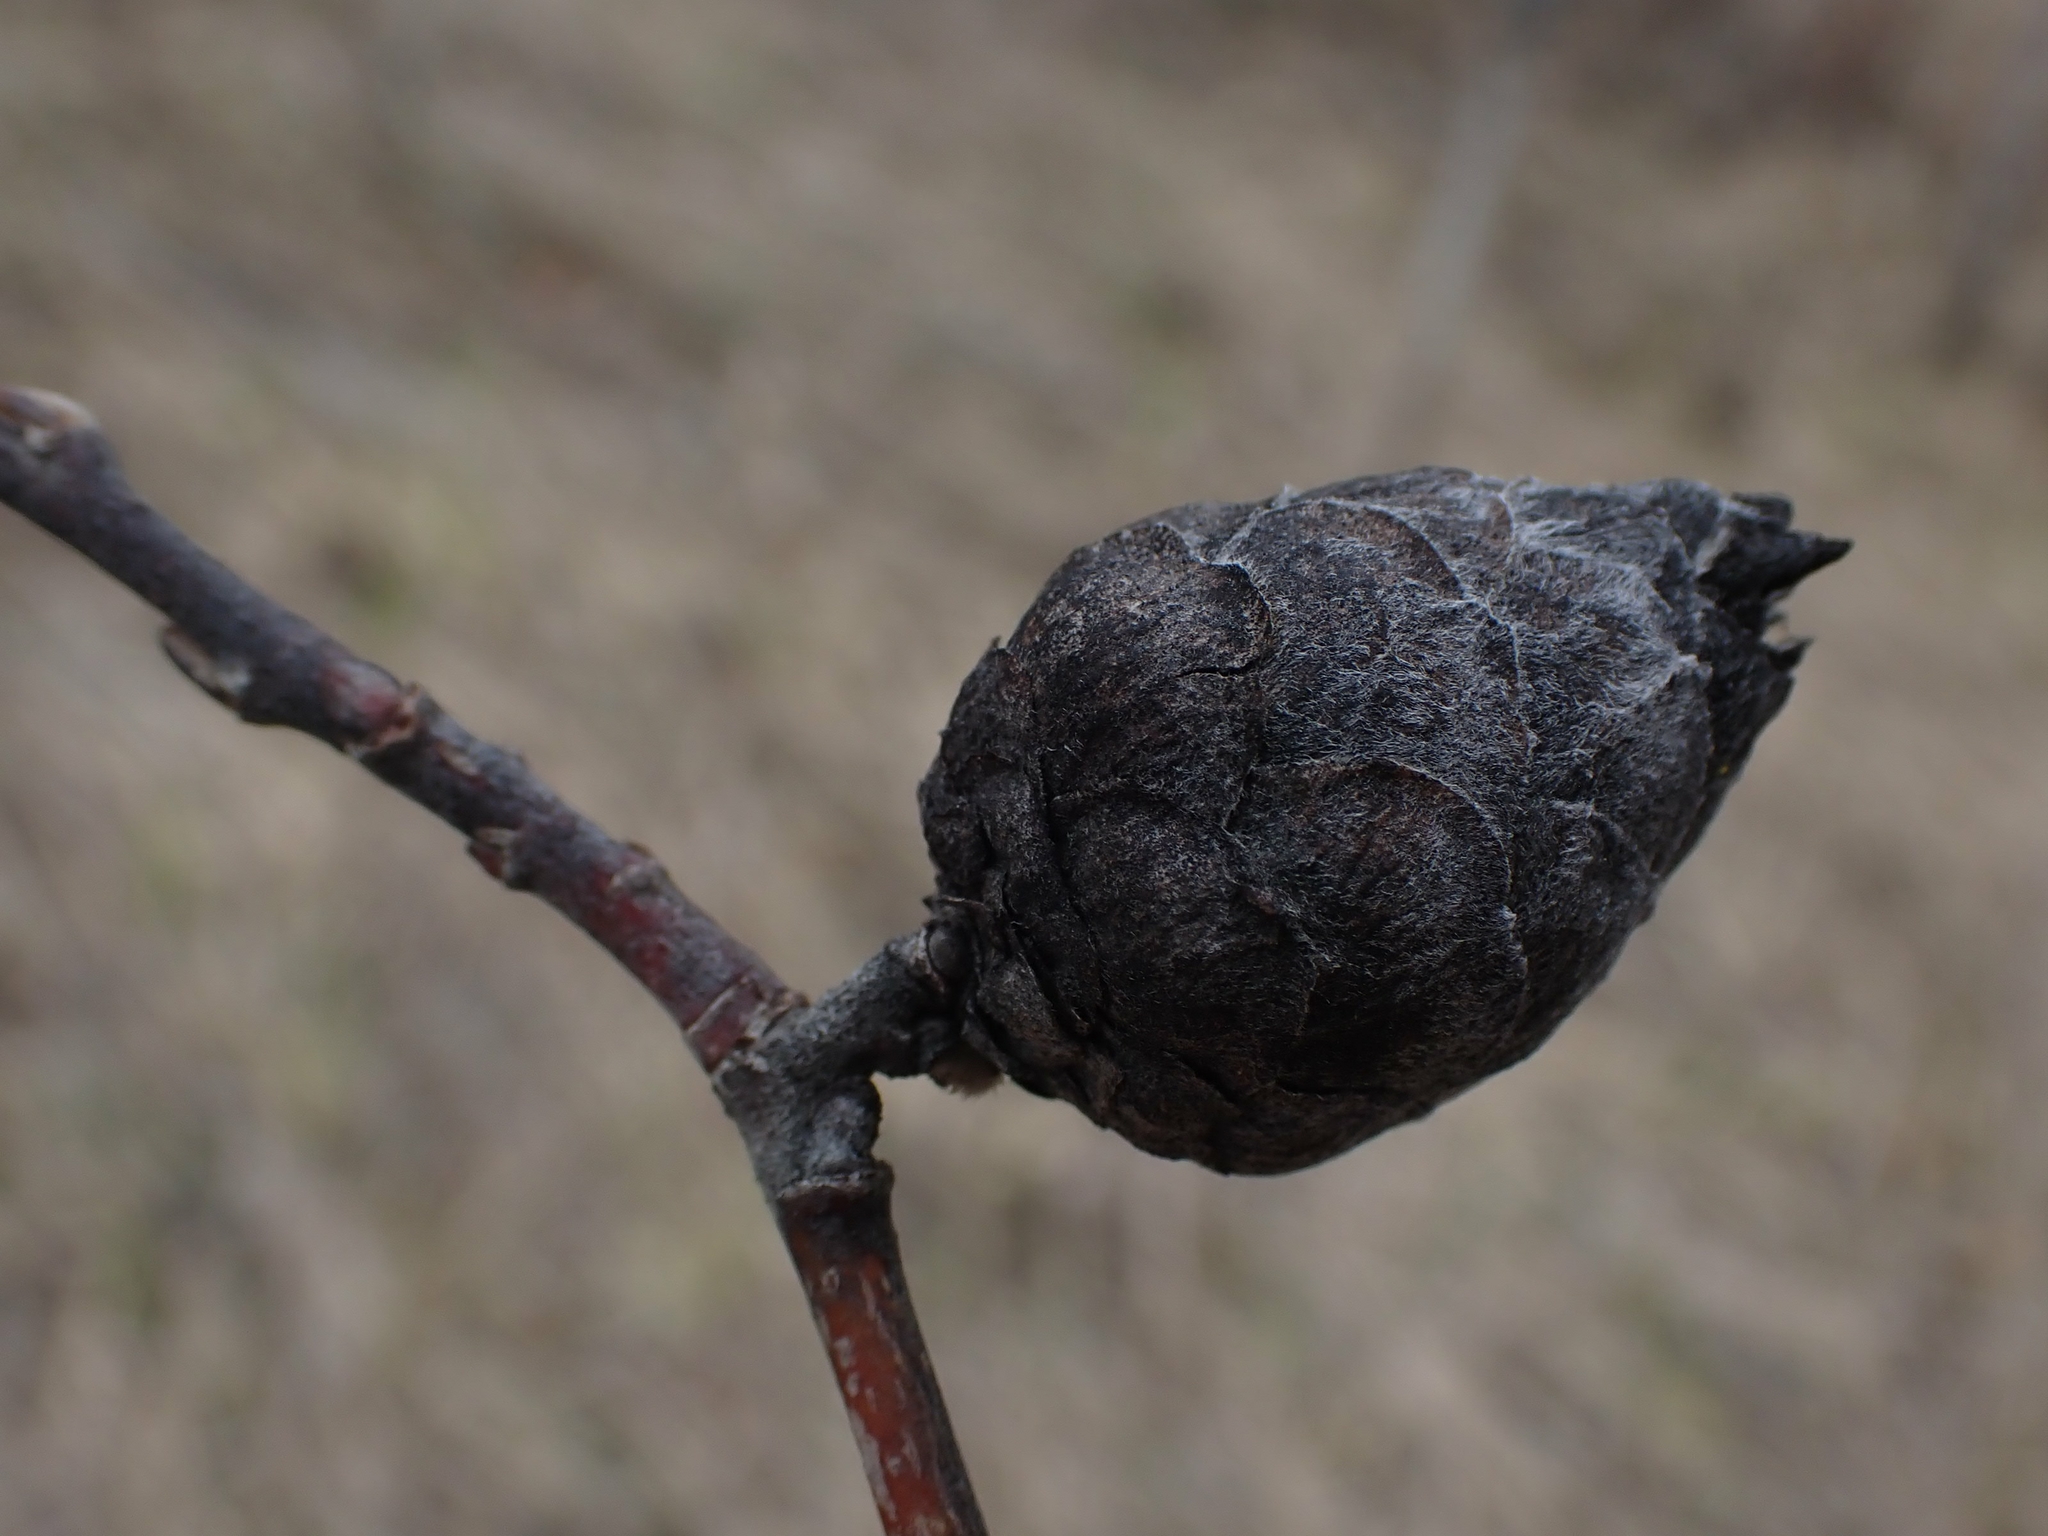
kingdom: Animalia
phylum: Arthropoda
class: Insecta
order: Diptera
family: Cecidomyiidae
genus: Rabdophaga
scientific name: Rabdophaga strobiloides
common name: Willow pinecone gall midge
